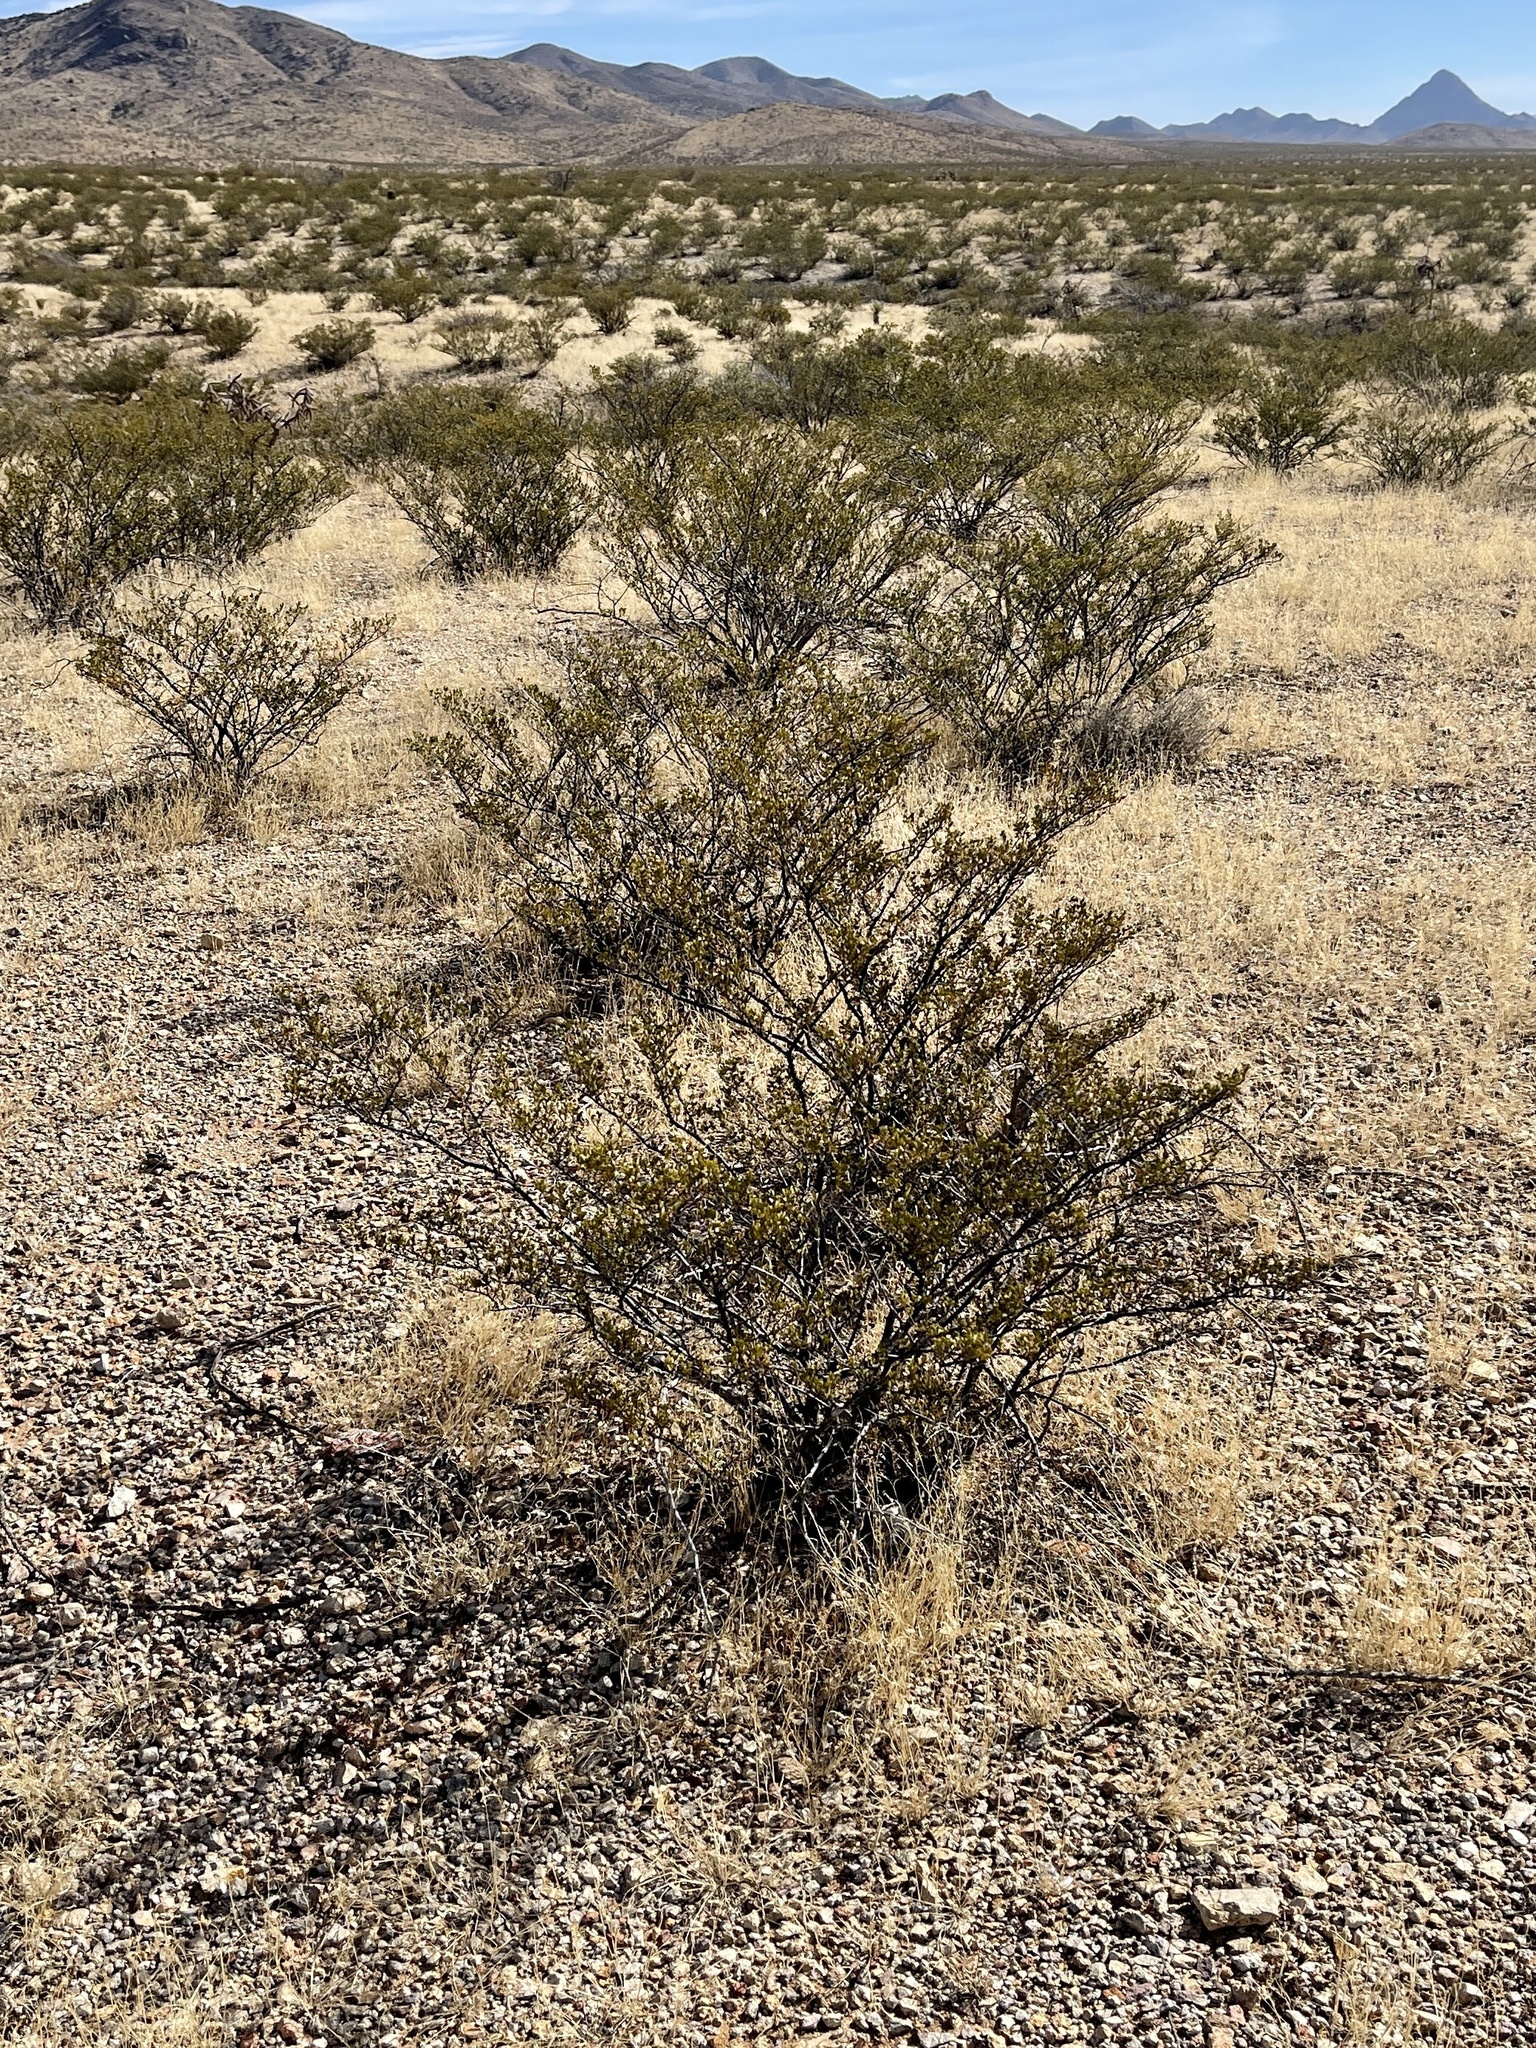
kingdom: Plantae
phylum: Tracheophyta
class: Magnoliopsida
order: Zygophyllales
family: Zygophyllaceae
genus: Larrea
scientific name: Larrea tridentata
